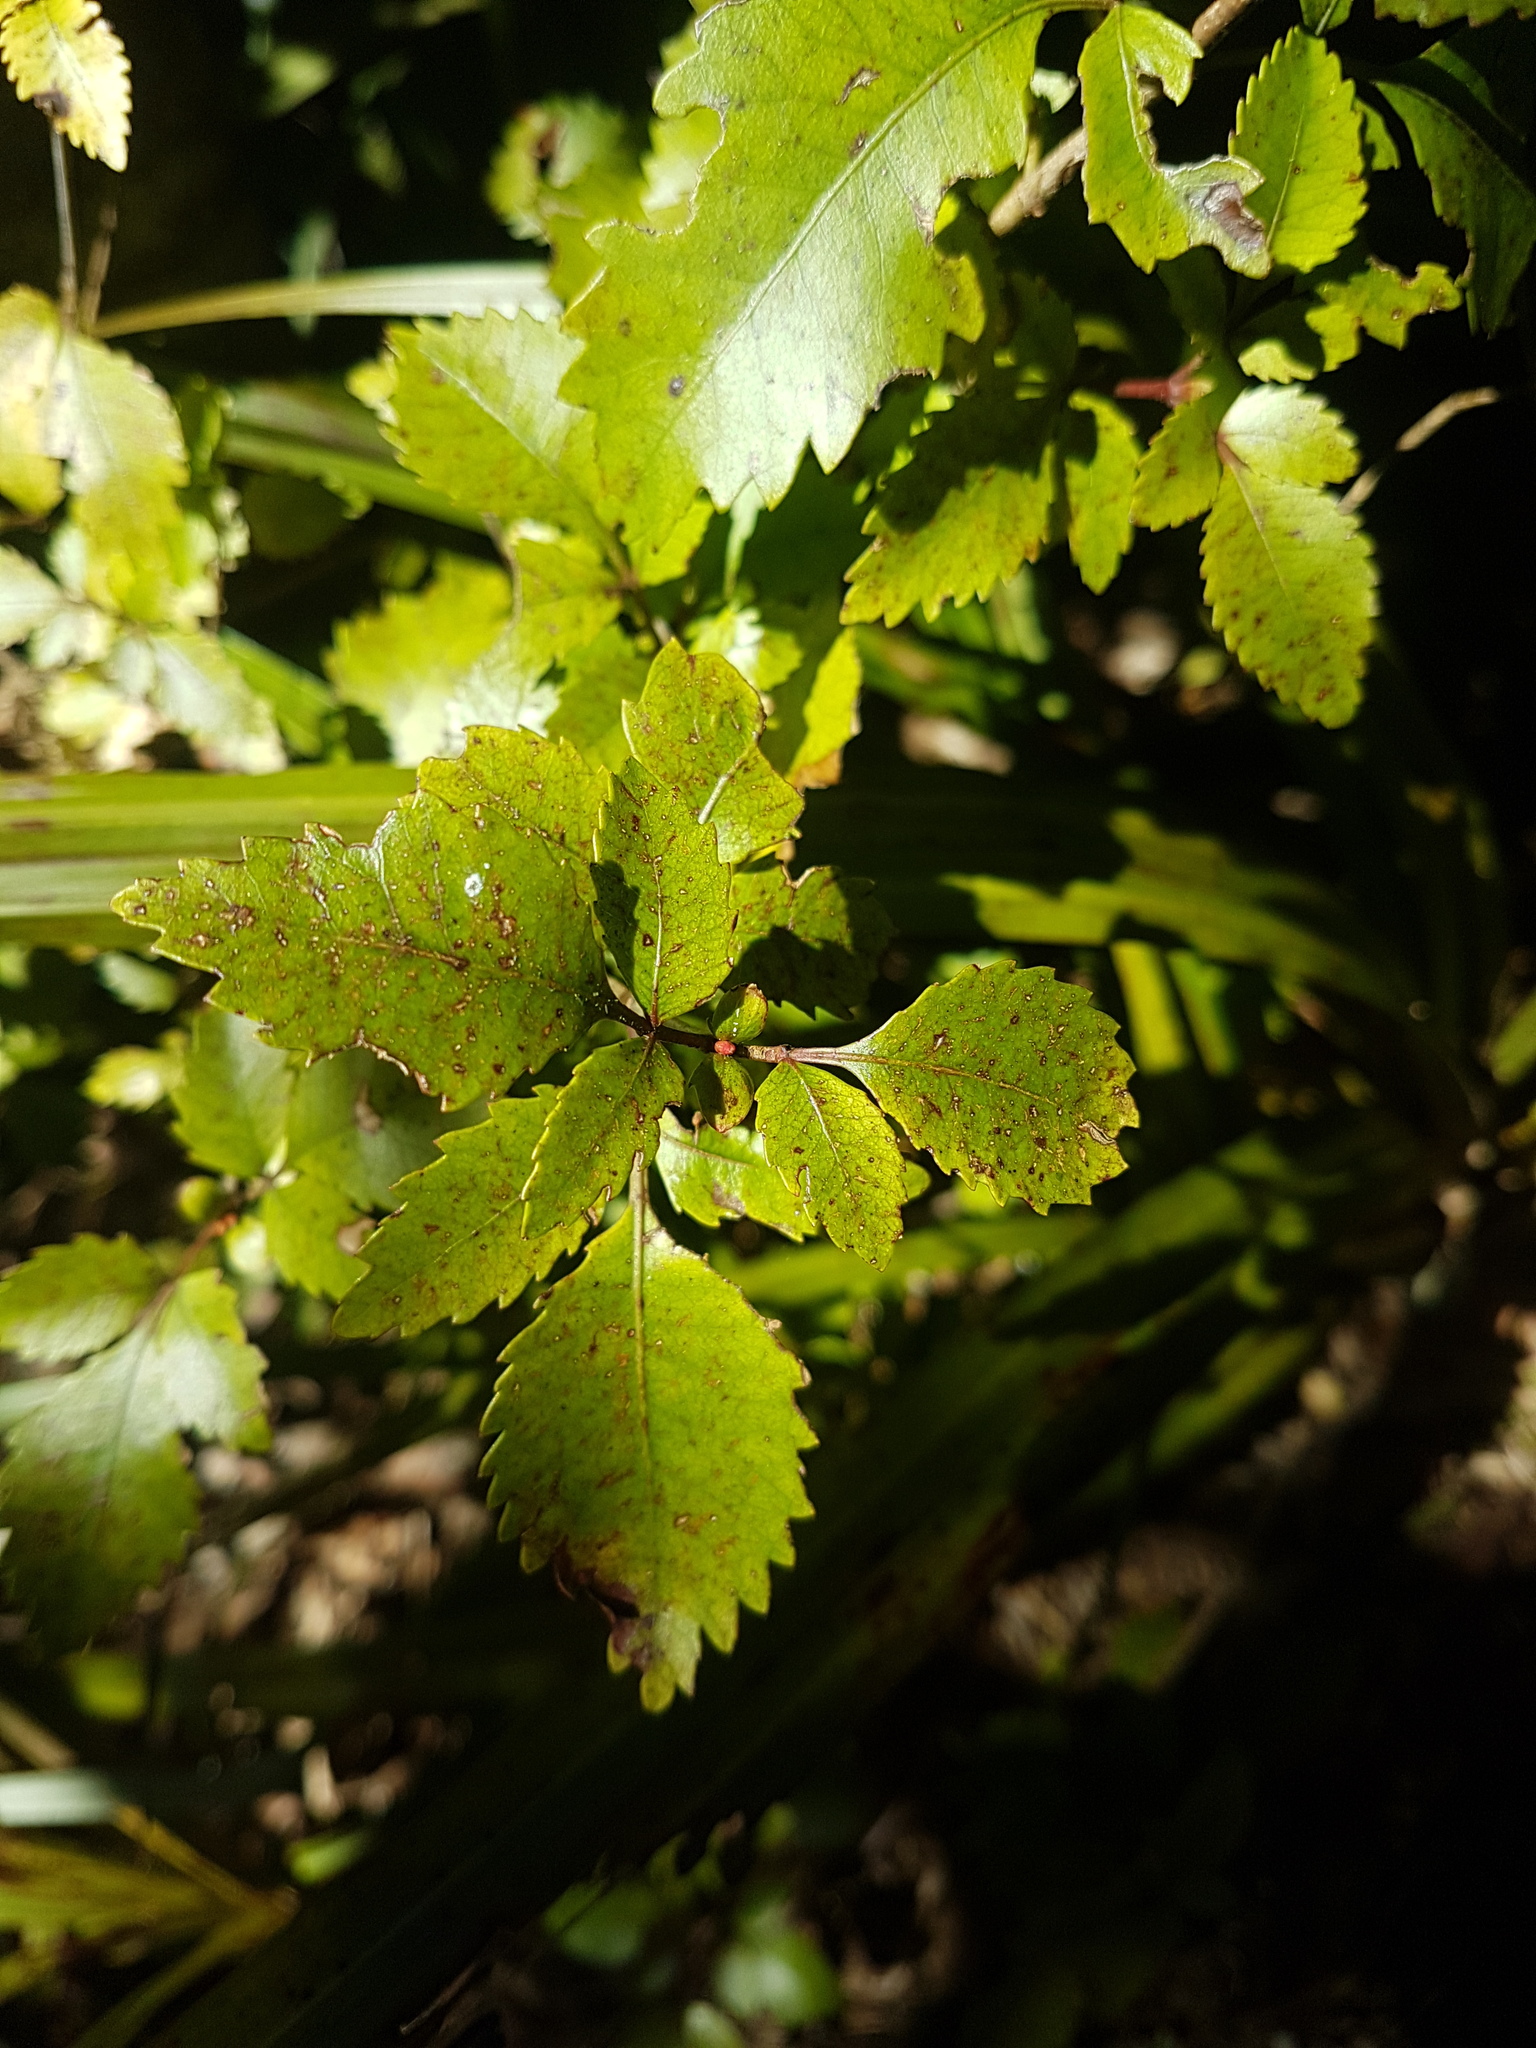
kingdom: Plantae
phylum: Tracheophyta
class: Magnoliopsida
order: Oxalidales
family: Cunoniaceae
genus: Pterophylla
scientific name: Pterophylla racemosa
